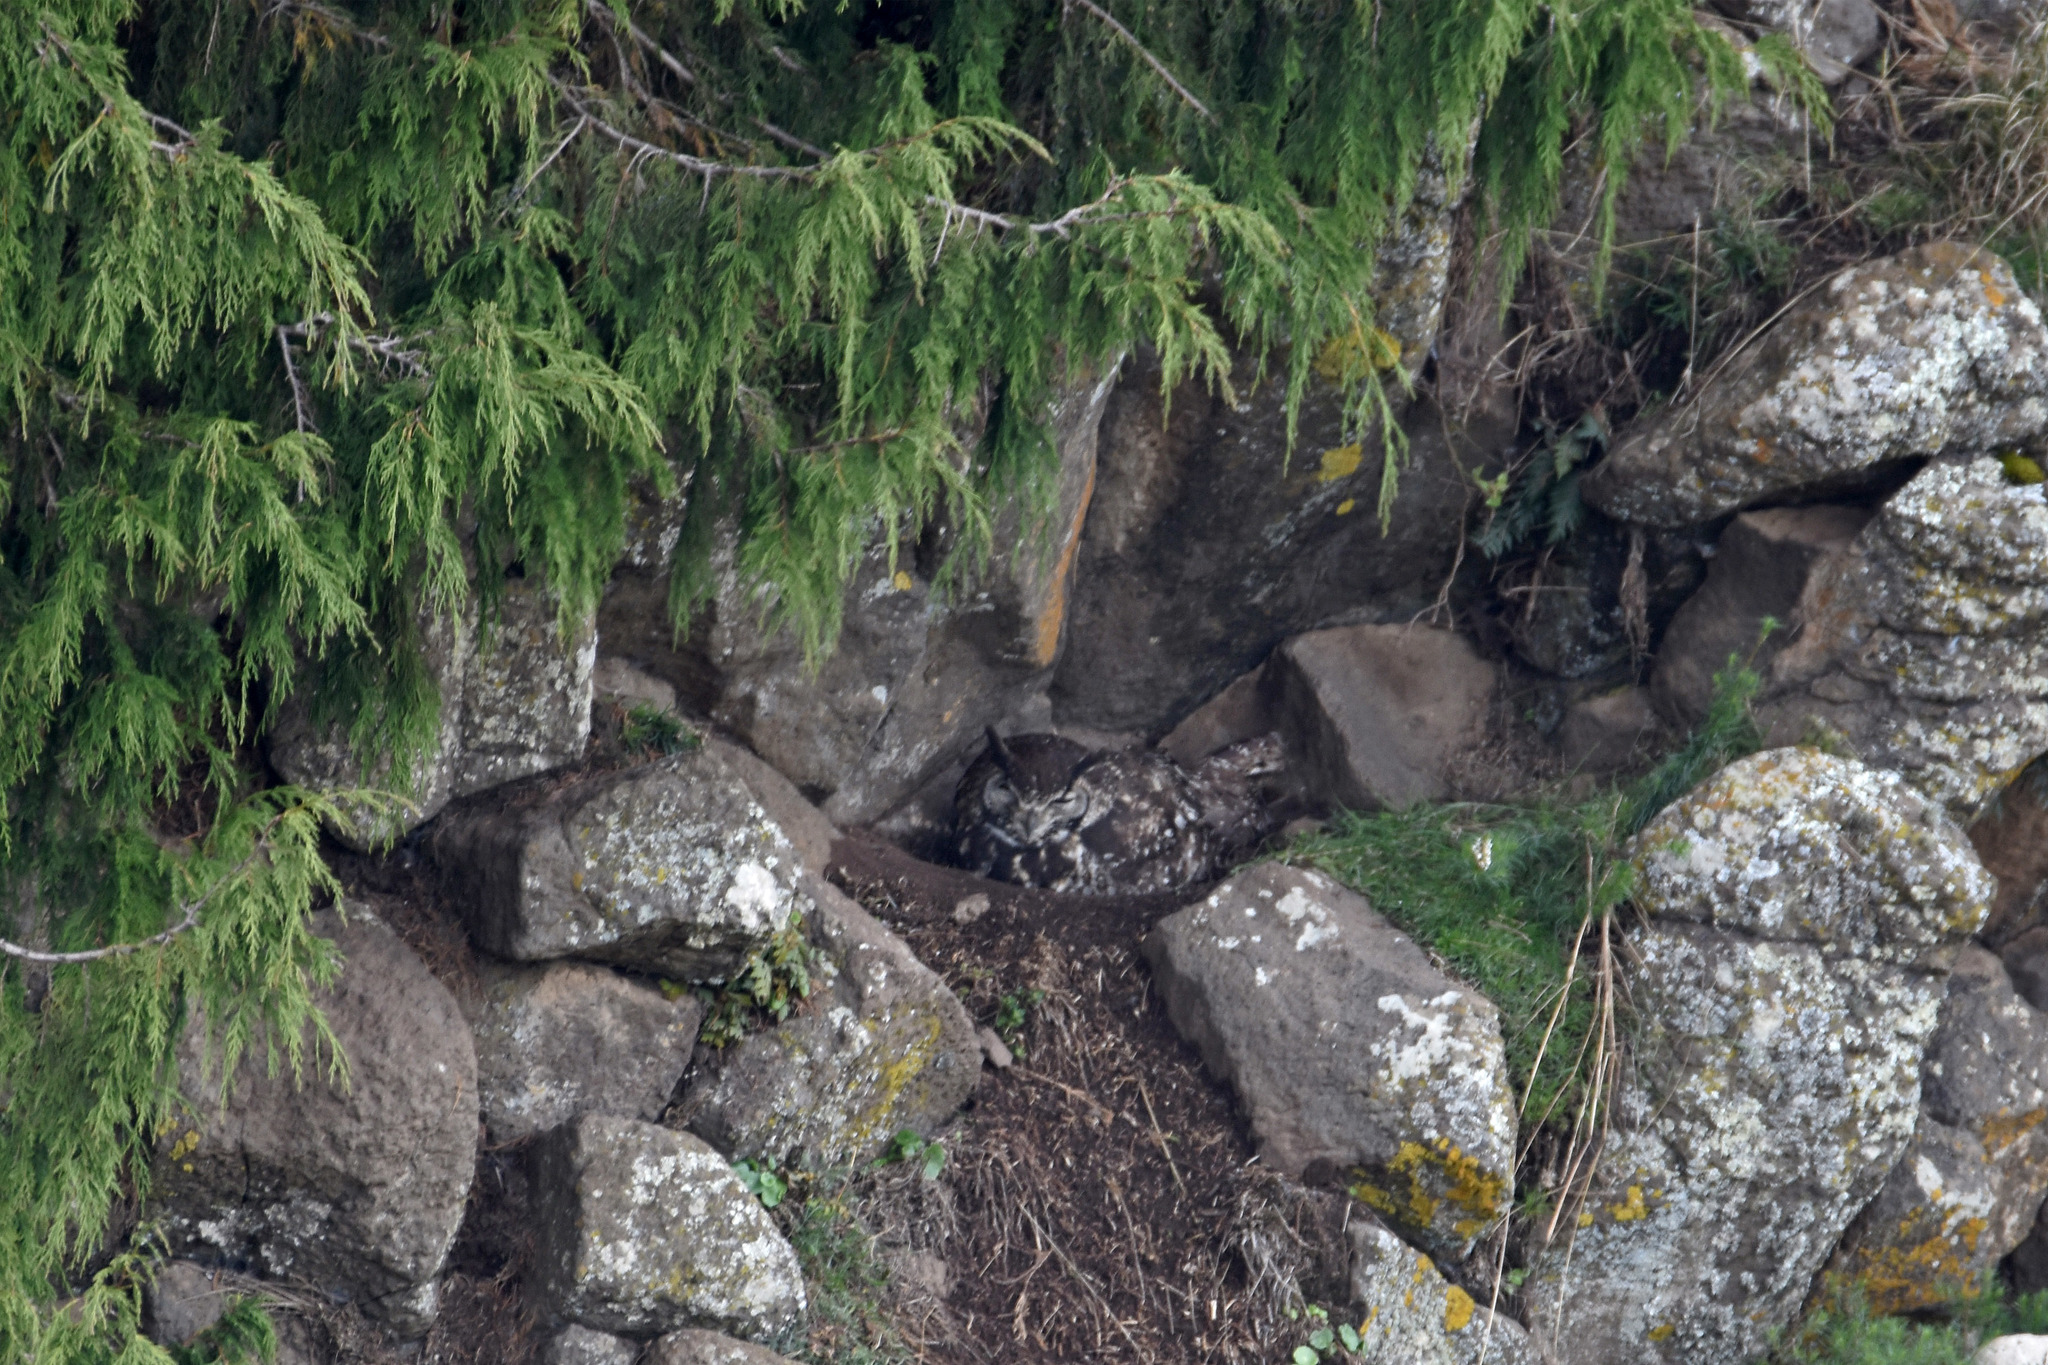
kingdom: Animalia
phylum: Chordata
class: Aves
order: Strigiformes
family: Strigidae
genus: Bubo
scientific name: Bubo capensis
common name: Cape eagle-owl
